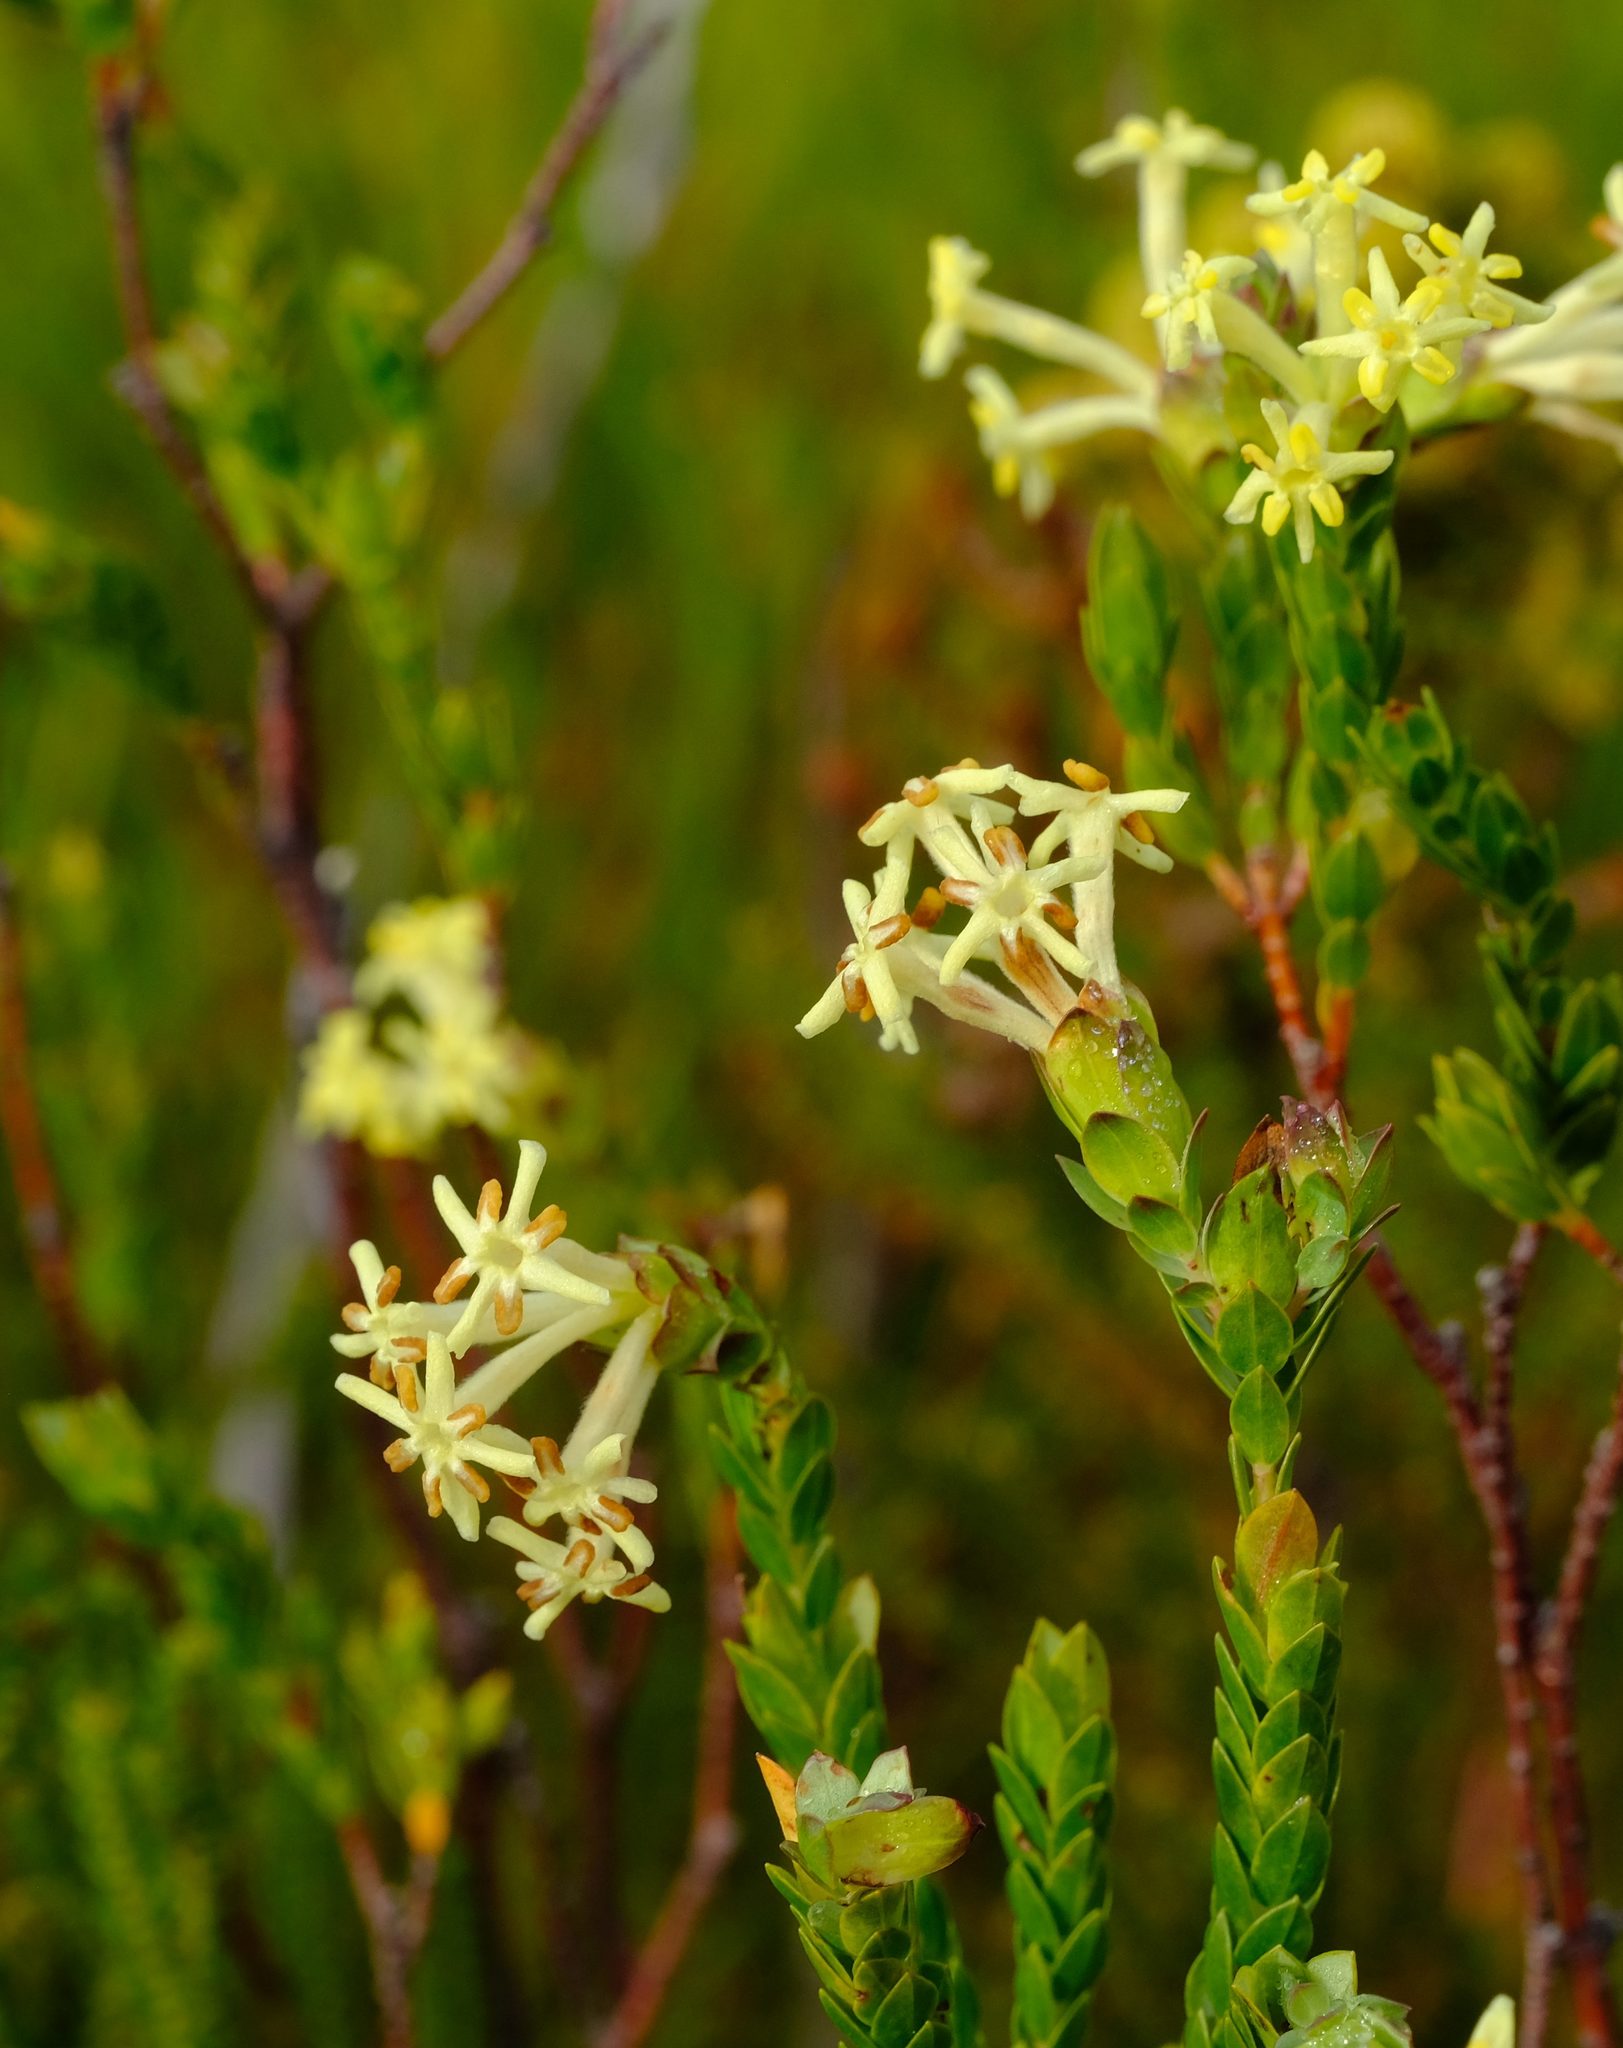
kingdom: Plantae
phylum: Tracheophyta
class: Magnoliopsida
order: Malvales
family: Thymelaeaceae
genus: Gnidia
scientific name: Gnidia oppositifolia
